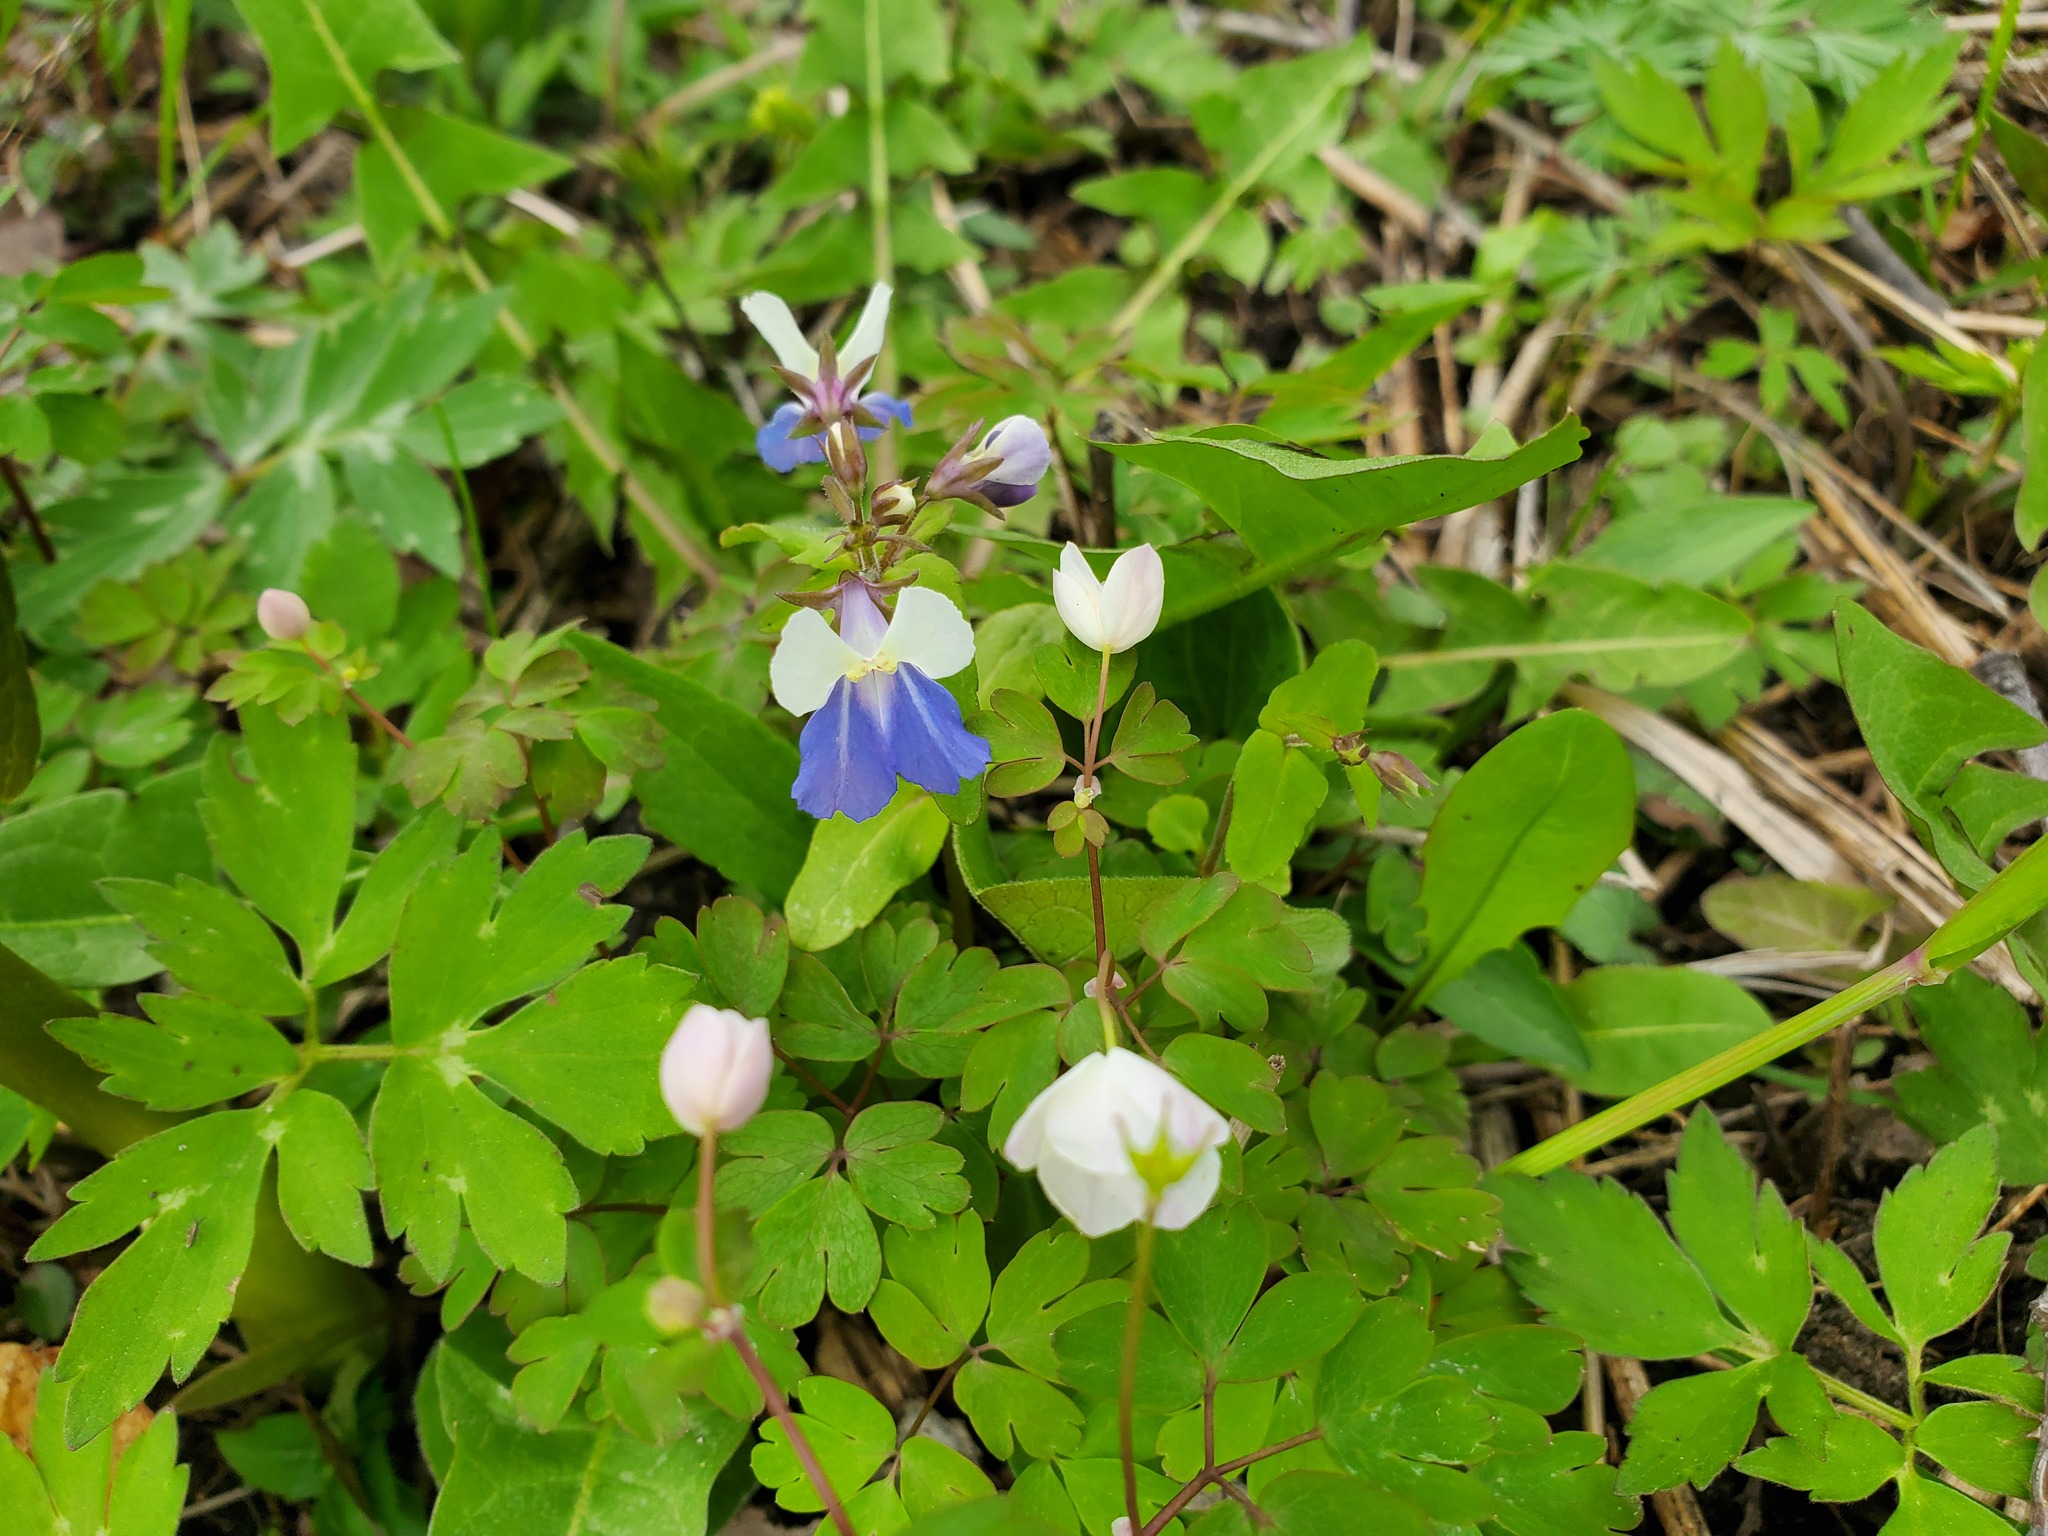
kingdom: Plantae
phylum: Tracheophyta
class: Magnoliopsida
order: Lamiales
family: Plantaginaceae
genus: Collinsia
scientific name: Collinsia verna
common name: Broad-leaved collinsia
